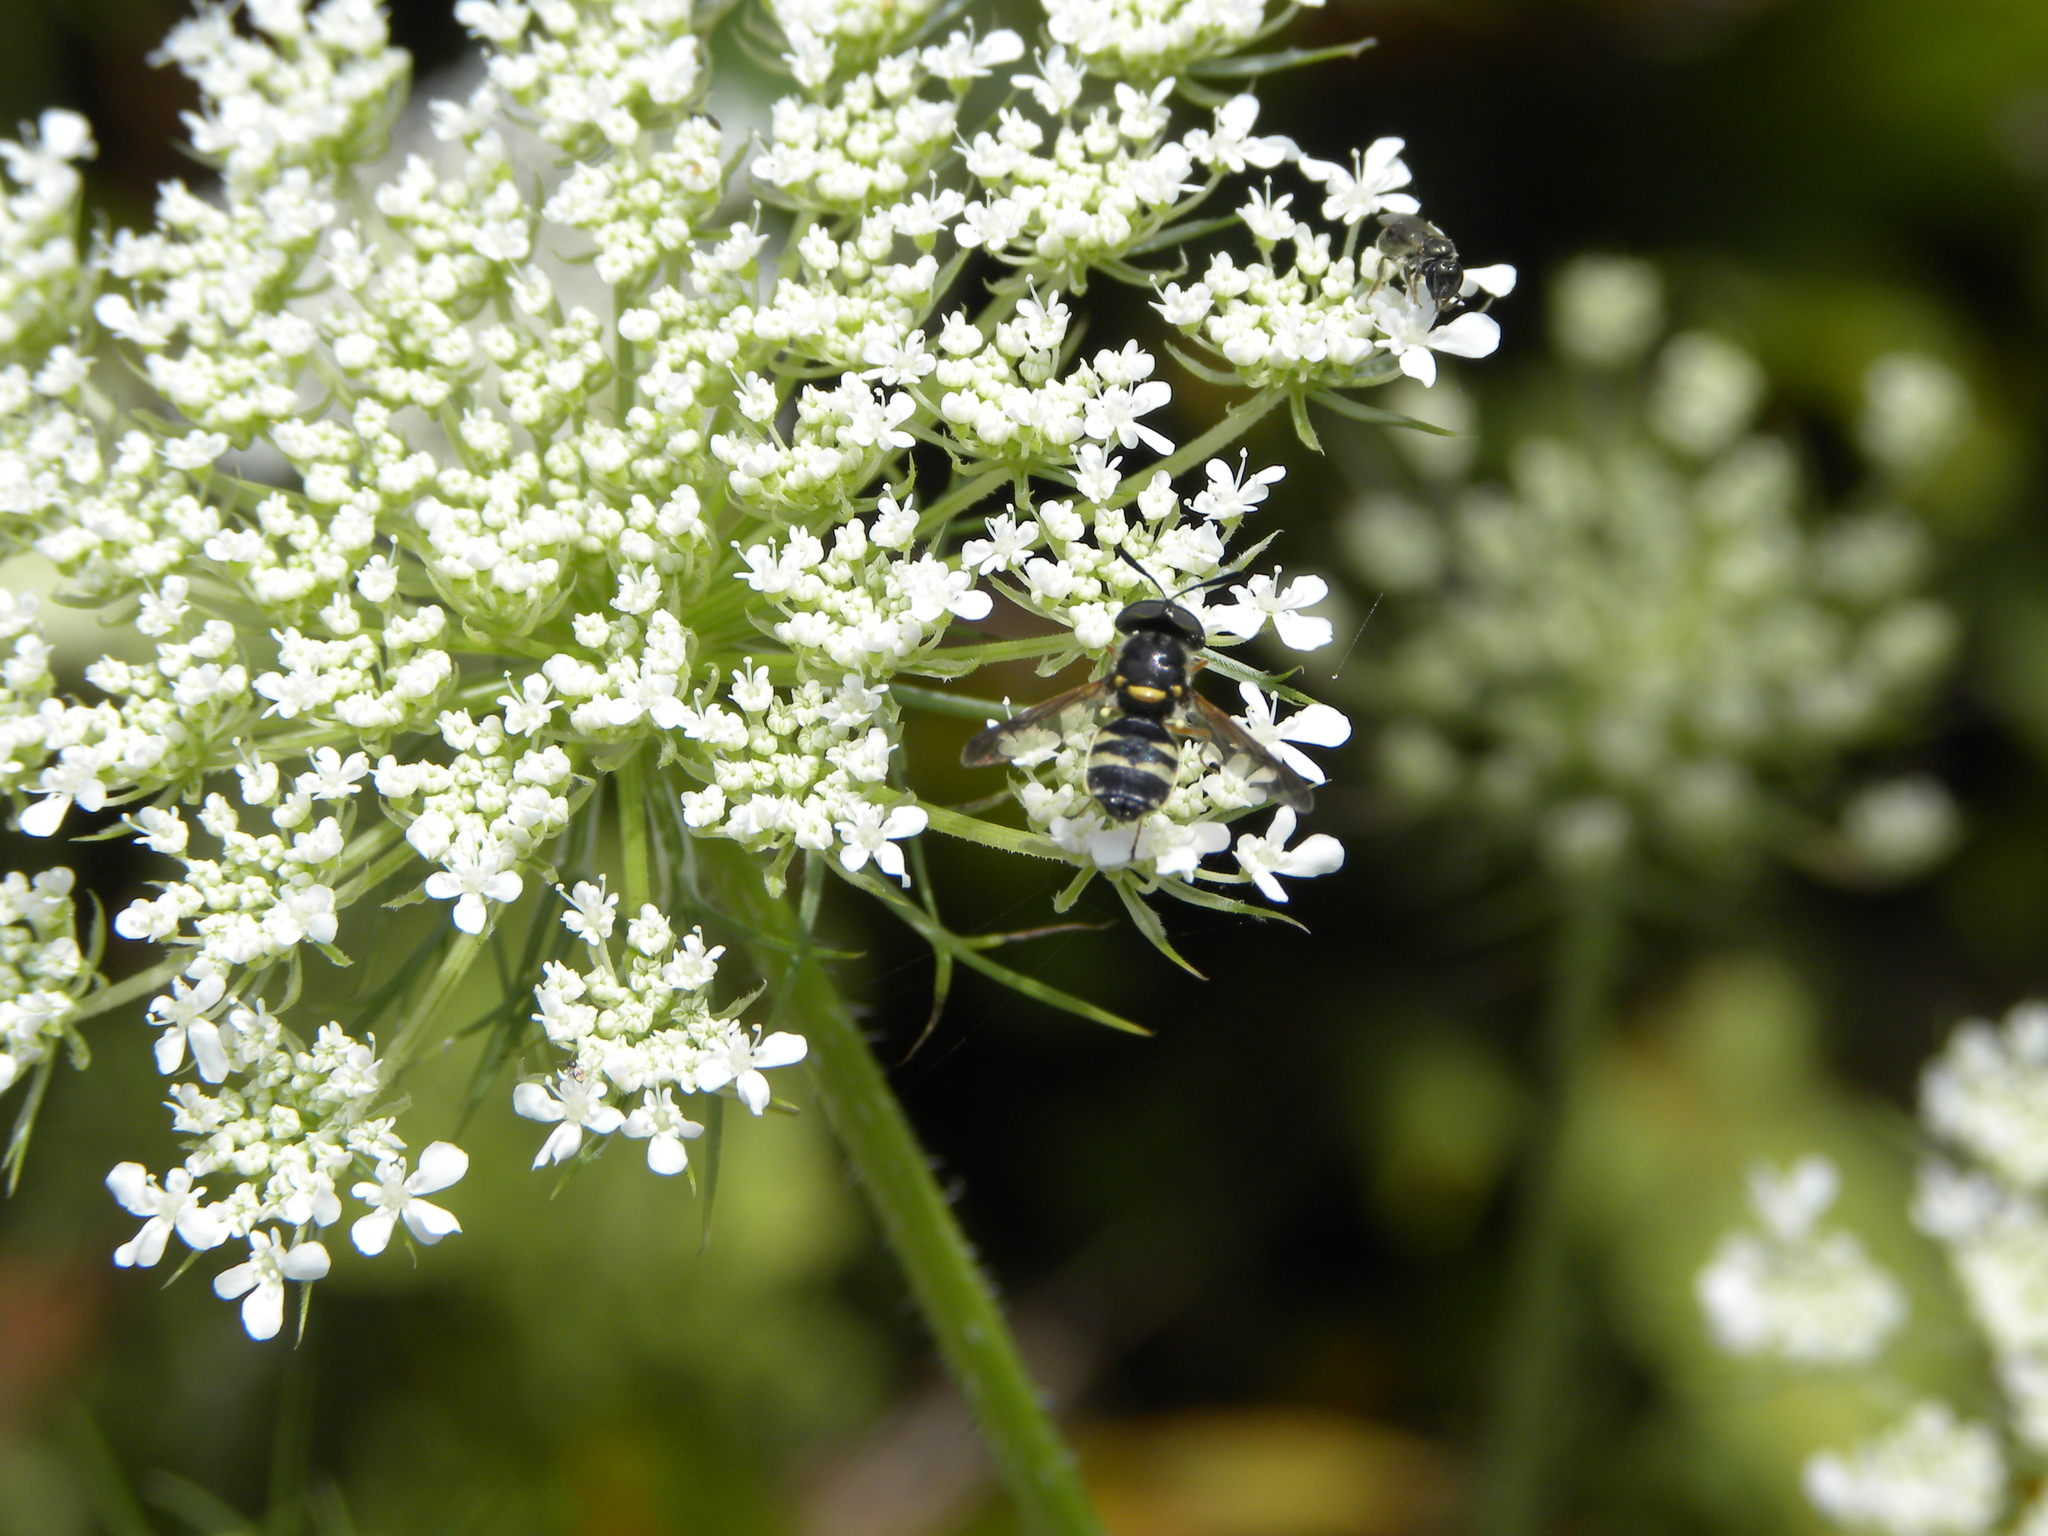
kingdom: Animalia
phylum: Arthropoda
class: Insecta
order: Diptera
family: Stratiomyidae
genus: Hoplitimyia
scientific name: Hoplitimyia constans
